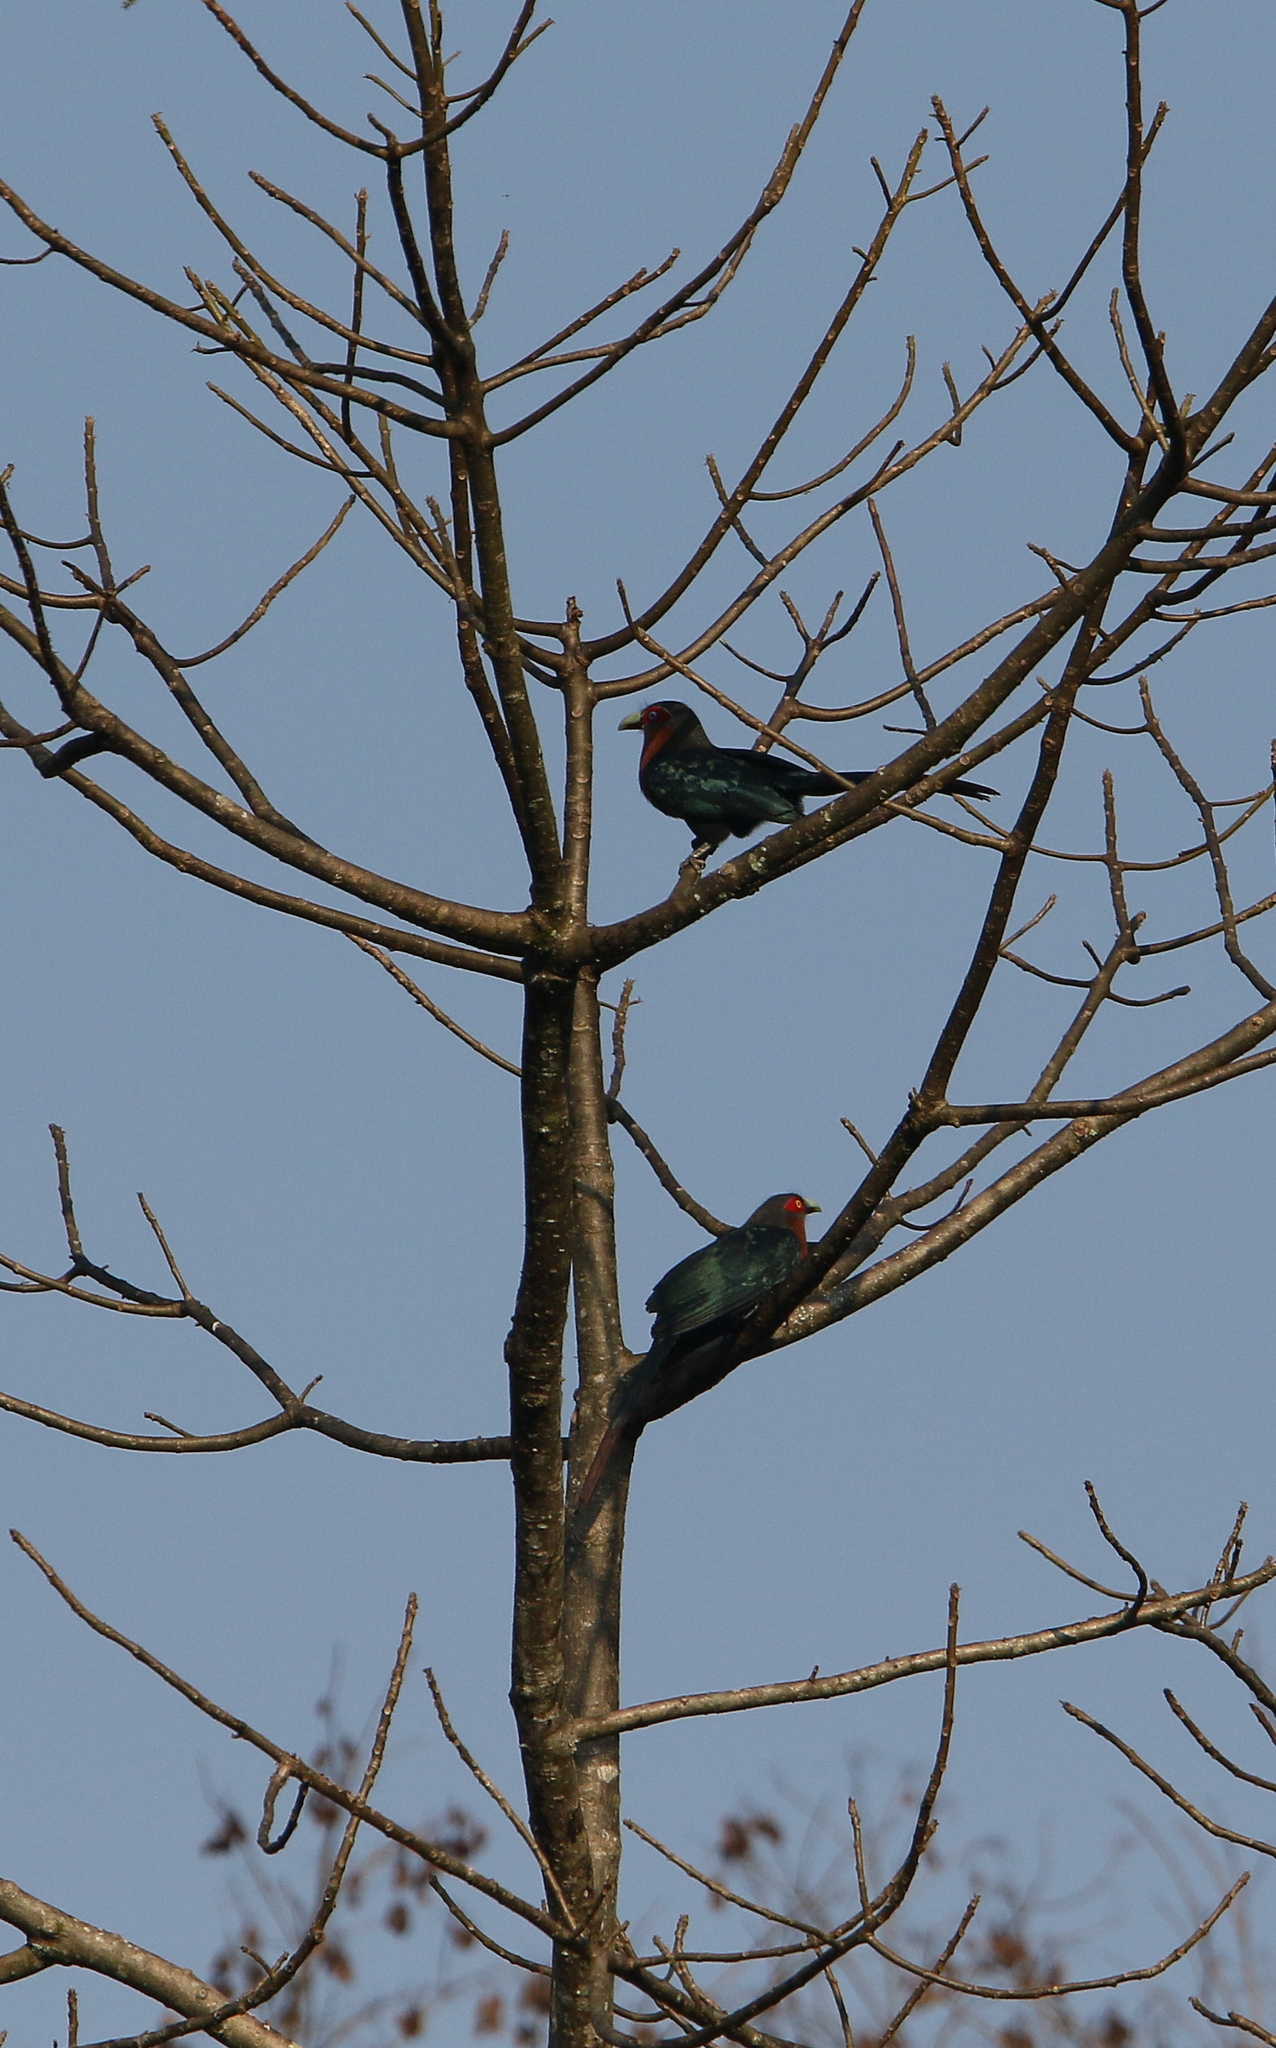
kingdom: Animalia
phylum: Chordata
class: Aves
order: Cuculiformes
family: Cuculidae
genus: Zanclostomus
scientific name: Zanclostomus curvirostris
